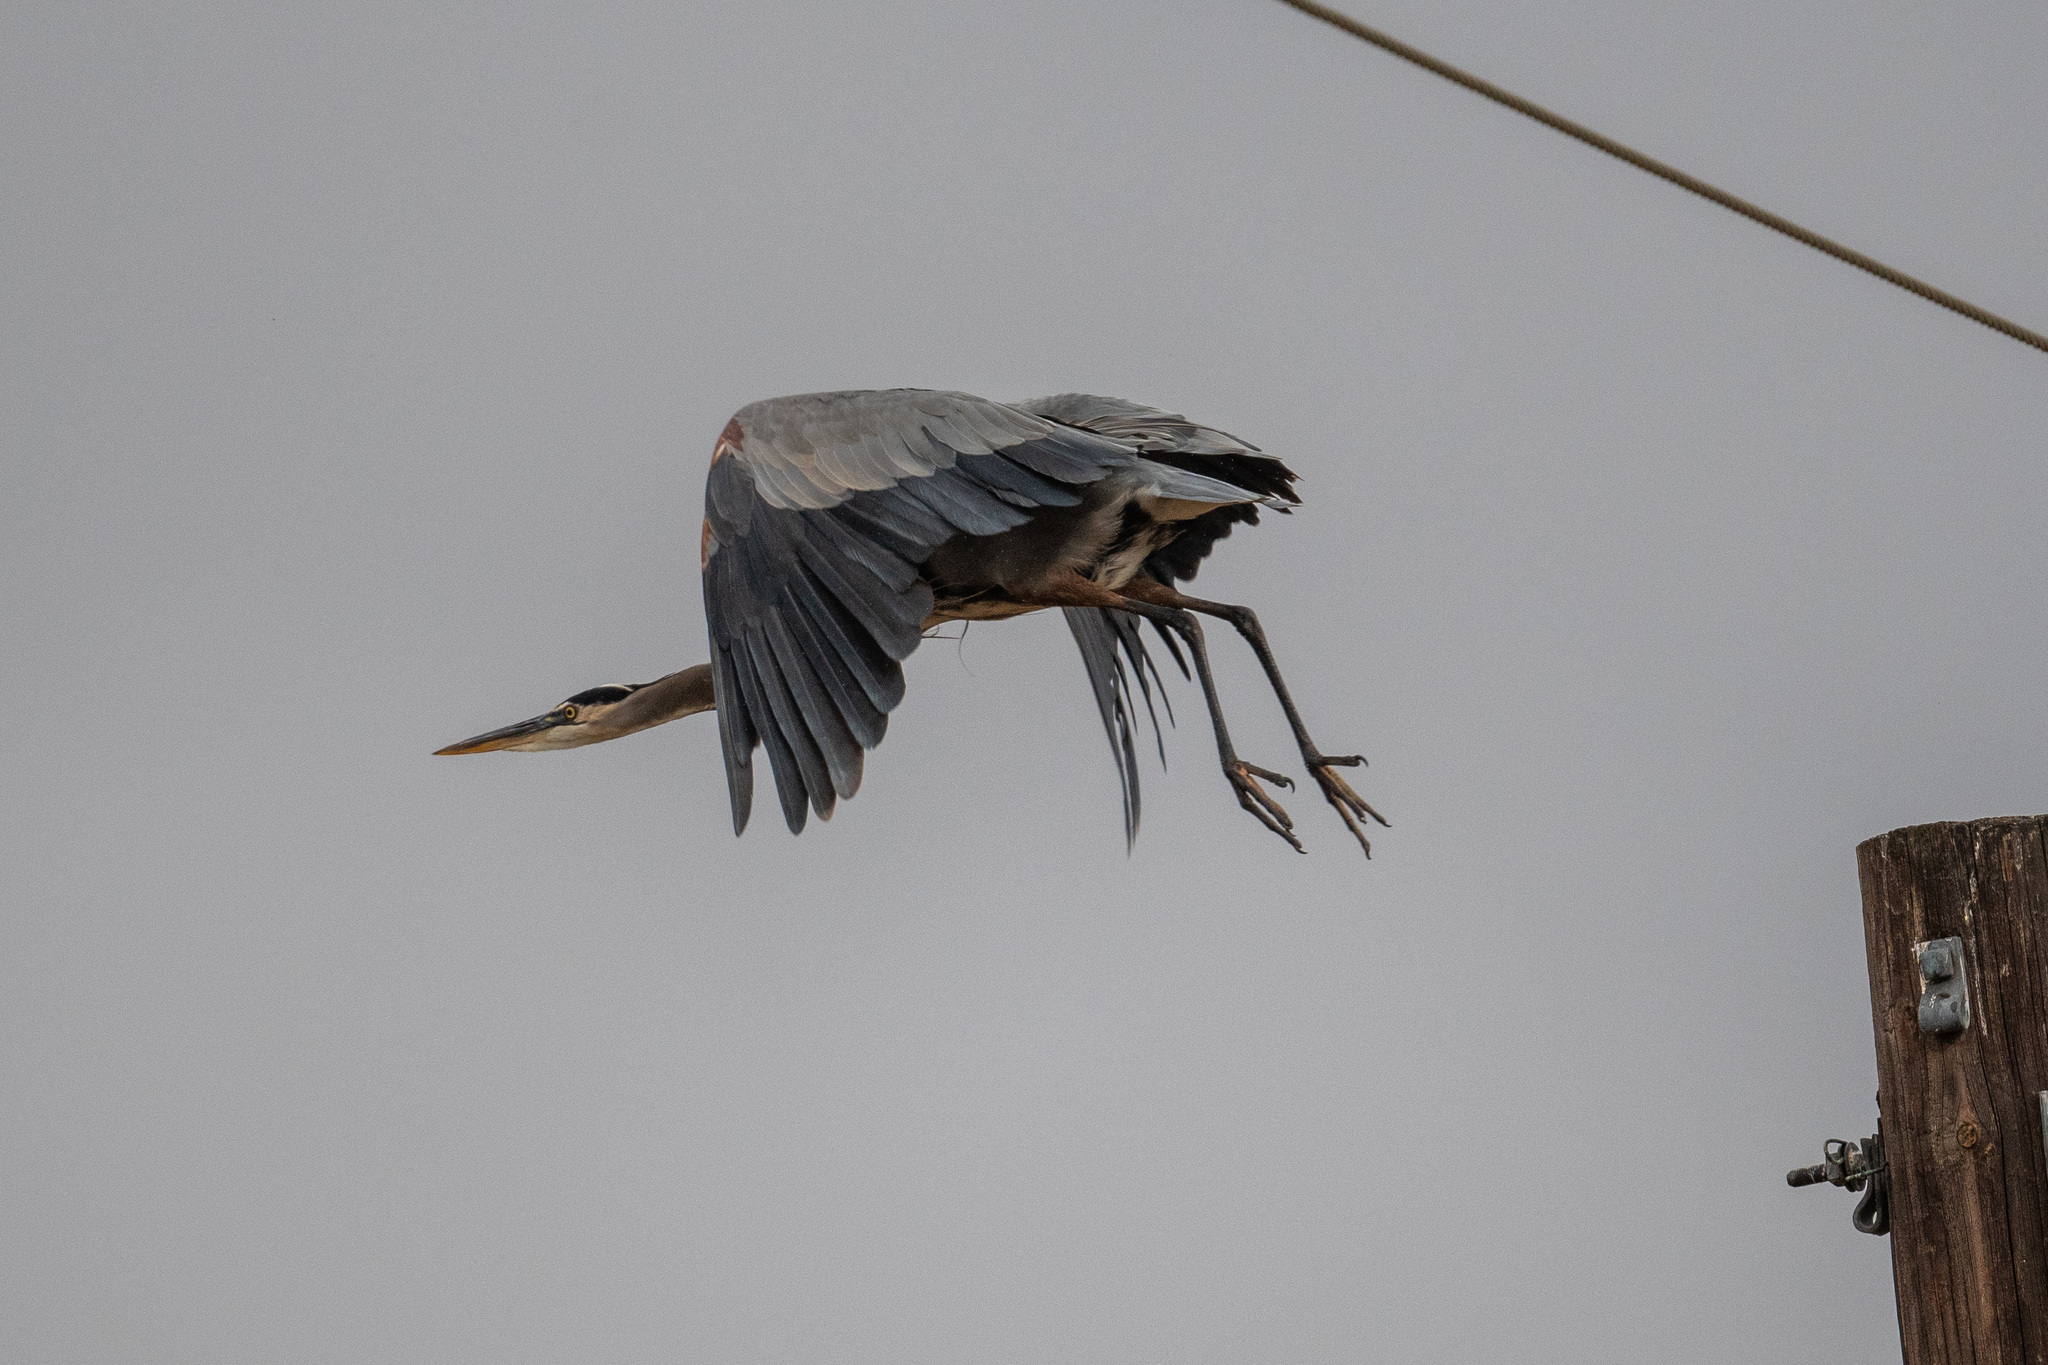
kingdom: Animalia
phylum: Chordata
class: Aves
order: Pelecaniformes
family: Ardeidae
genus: Ardea
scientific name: Ardea herodias
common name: Great blue heron
